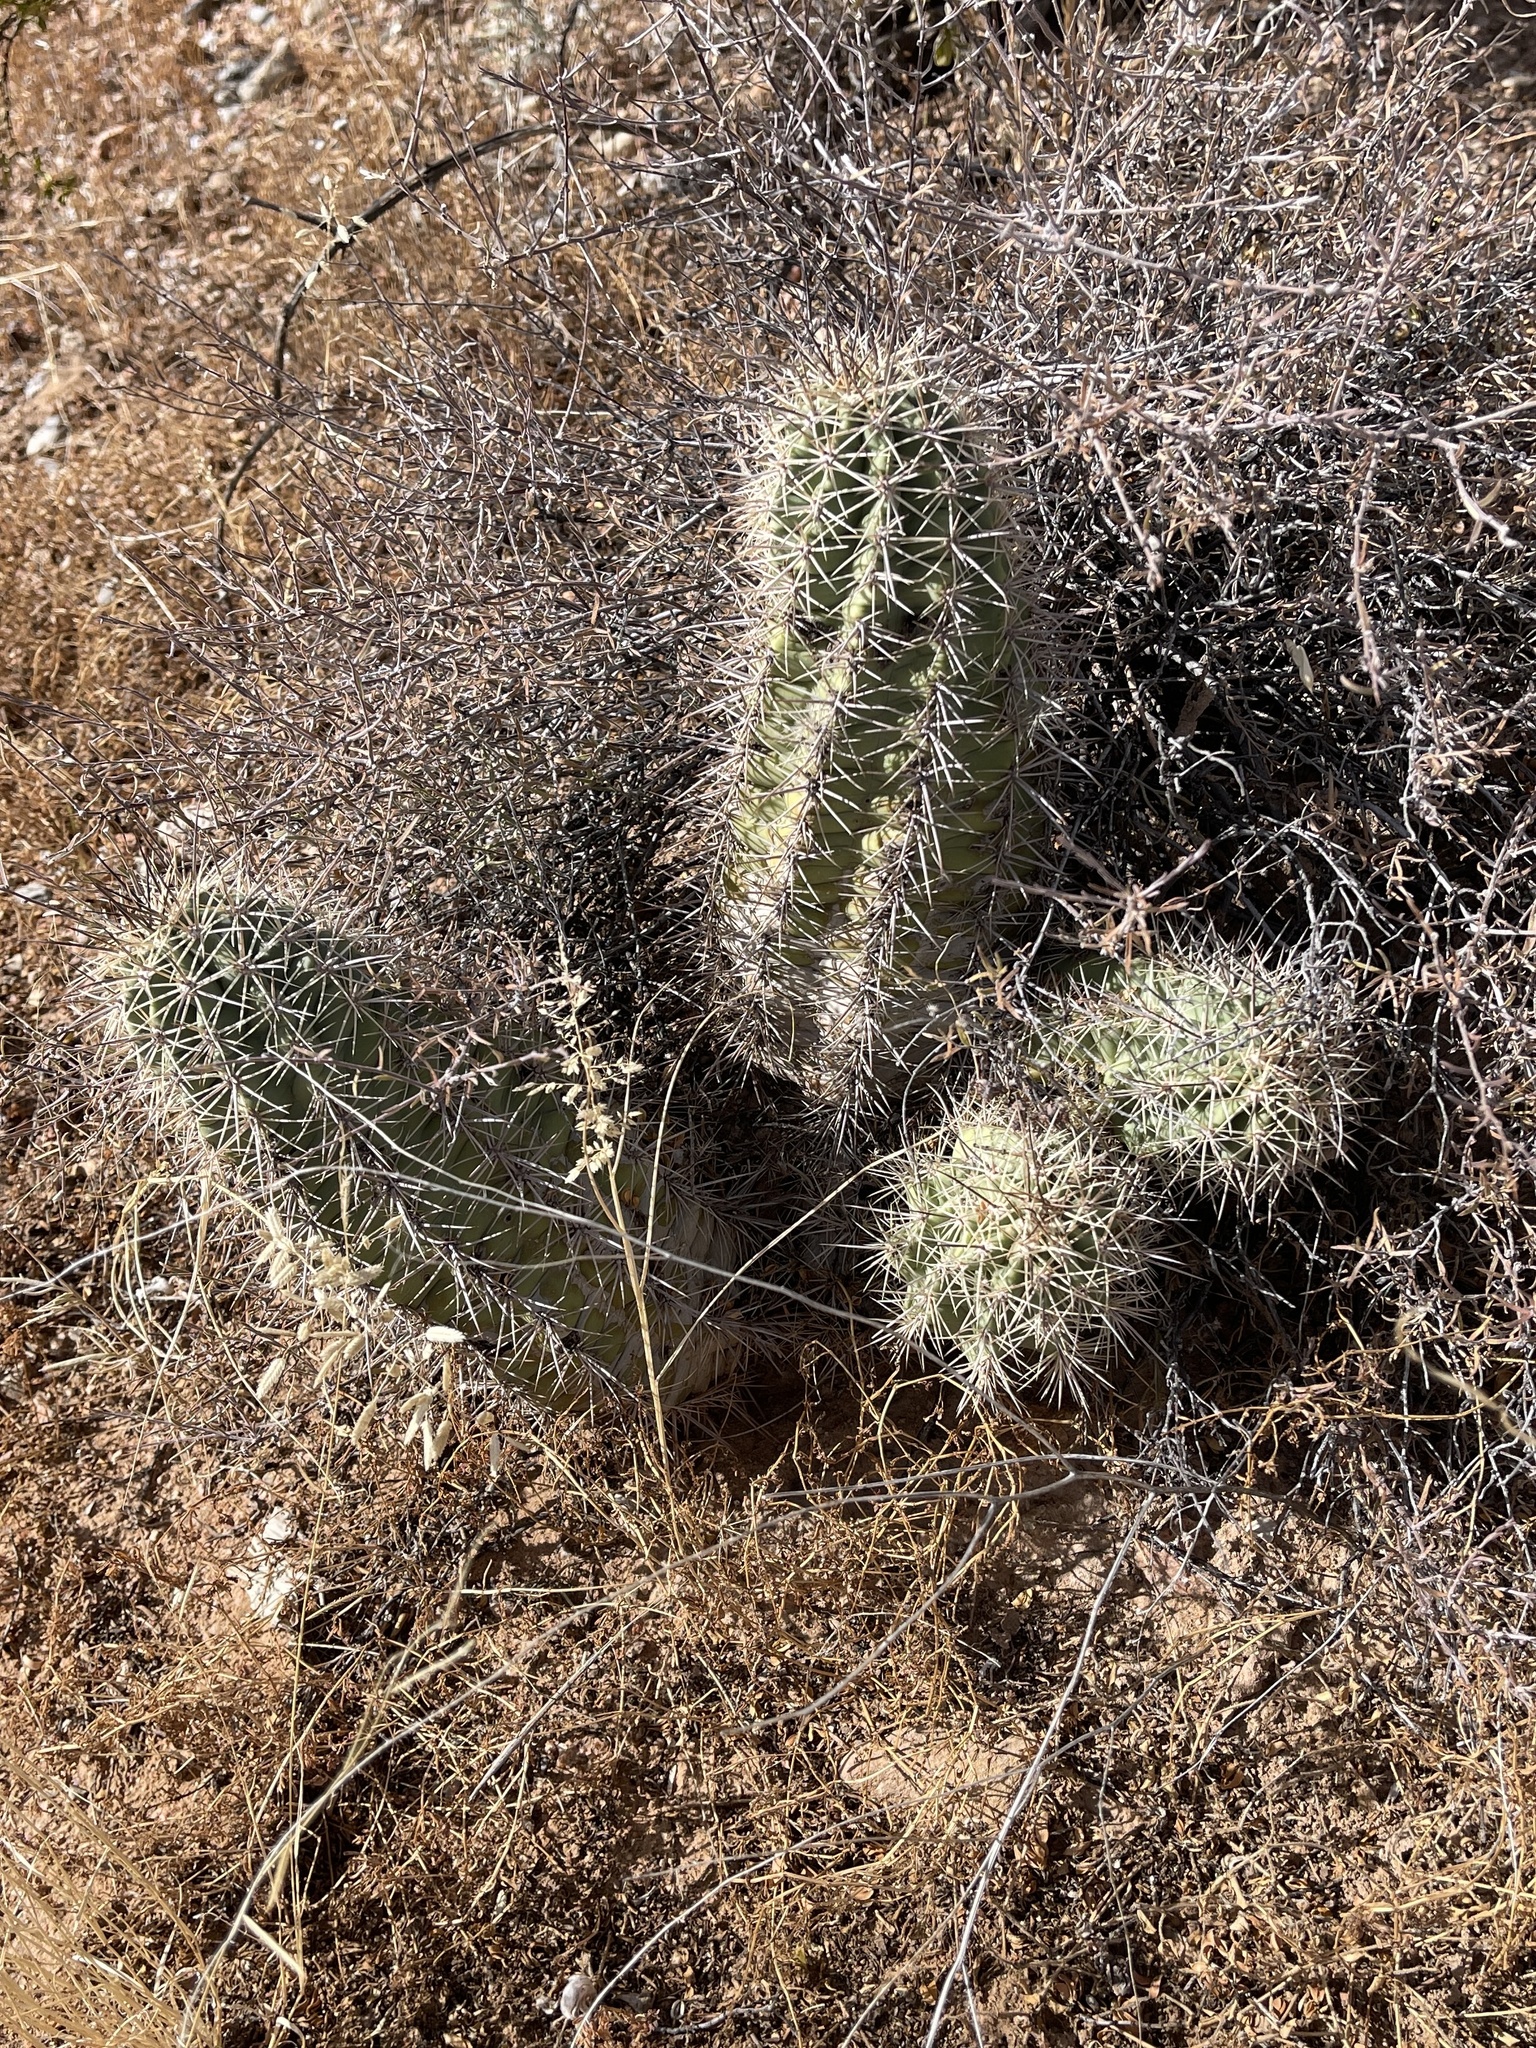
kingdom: Plantae
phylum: Tracheophyta
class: Magnoliopsida
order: Caryophyllales
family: Cactaceae
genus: Echinocereus
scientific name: Echinocereus coccineus
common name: Scarlet hedgehog cactus
